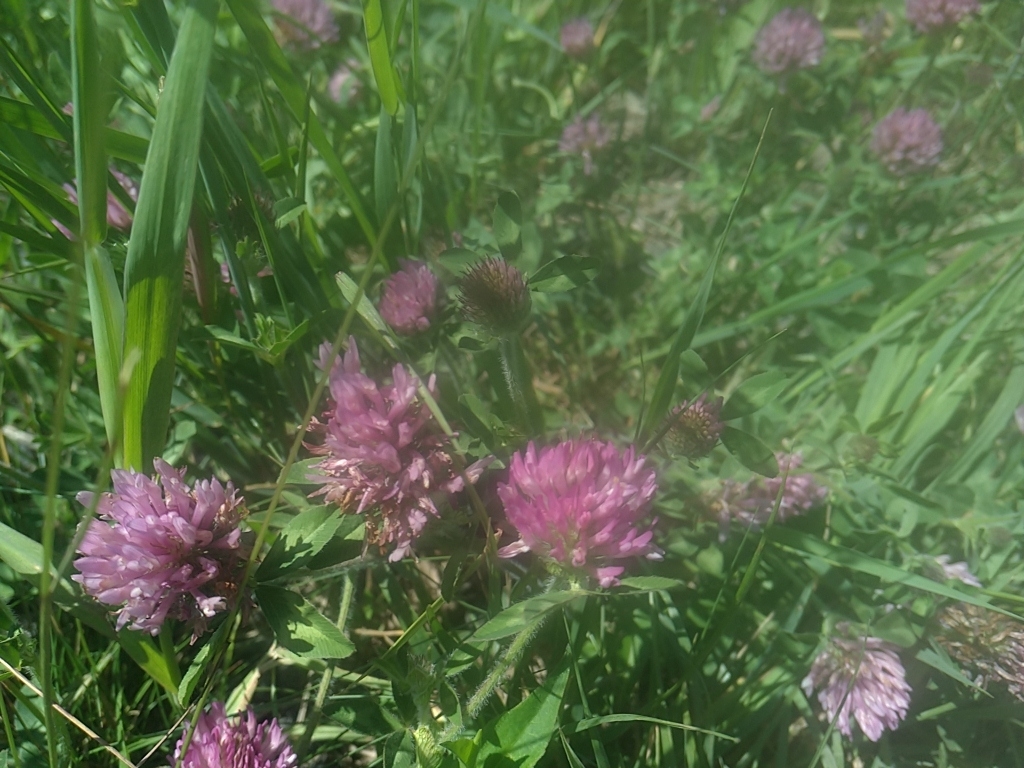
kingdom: Plantae
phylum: Tracheophyta
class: Magnoliopsida
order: Fabales
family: Fabaceae
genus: Trifolium
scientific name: Trifolium pratense
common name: Red clover
